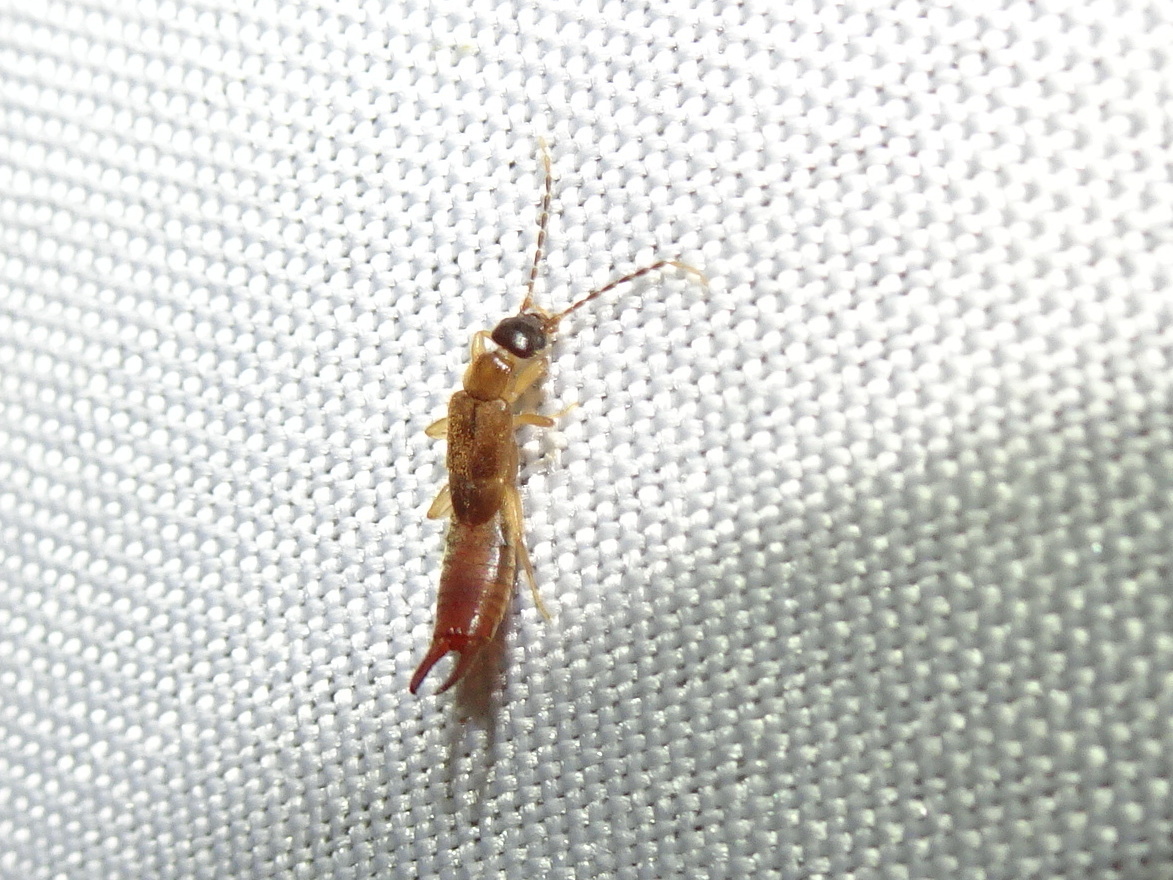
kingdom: Animalia
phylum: Arthropoda
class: Insecta
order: Dermaptera
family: Spongiphoridae
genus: Labia
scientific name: Labia minor
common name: Lesser earwig
